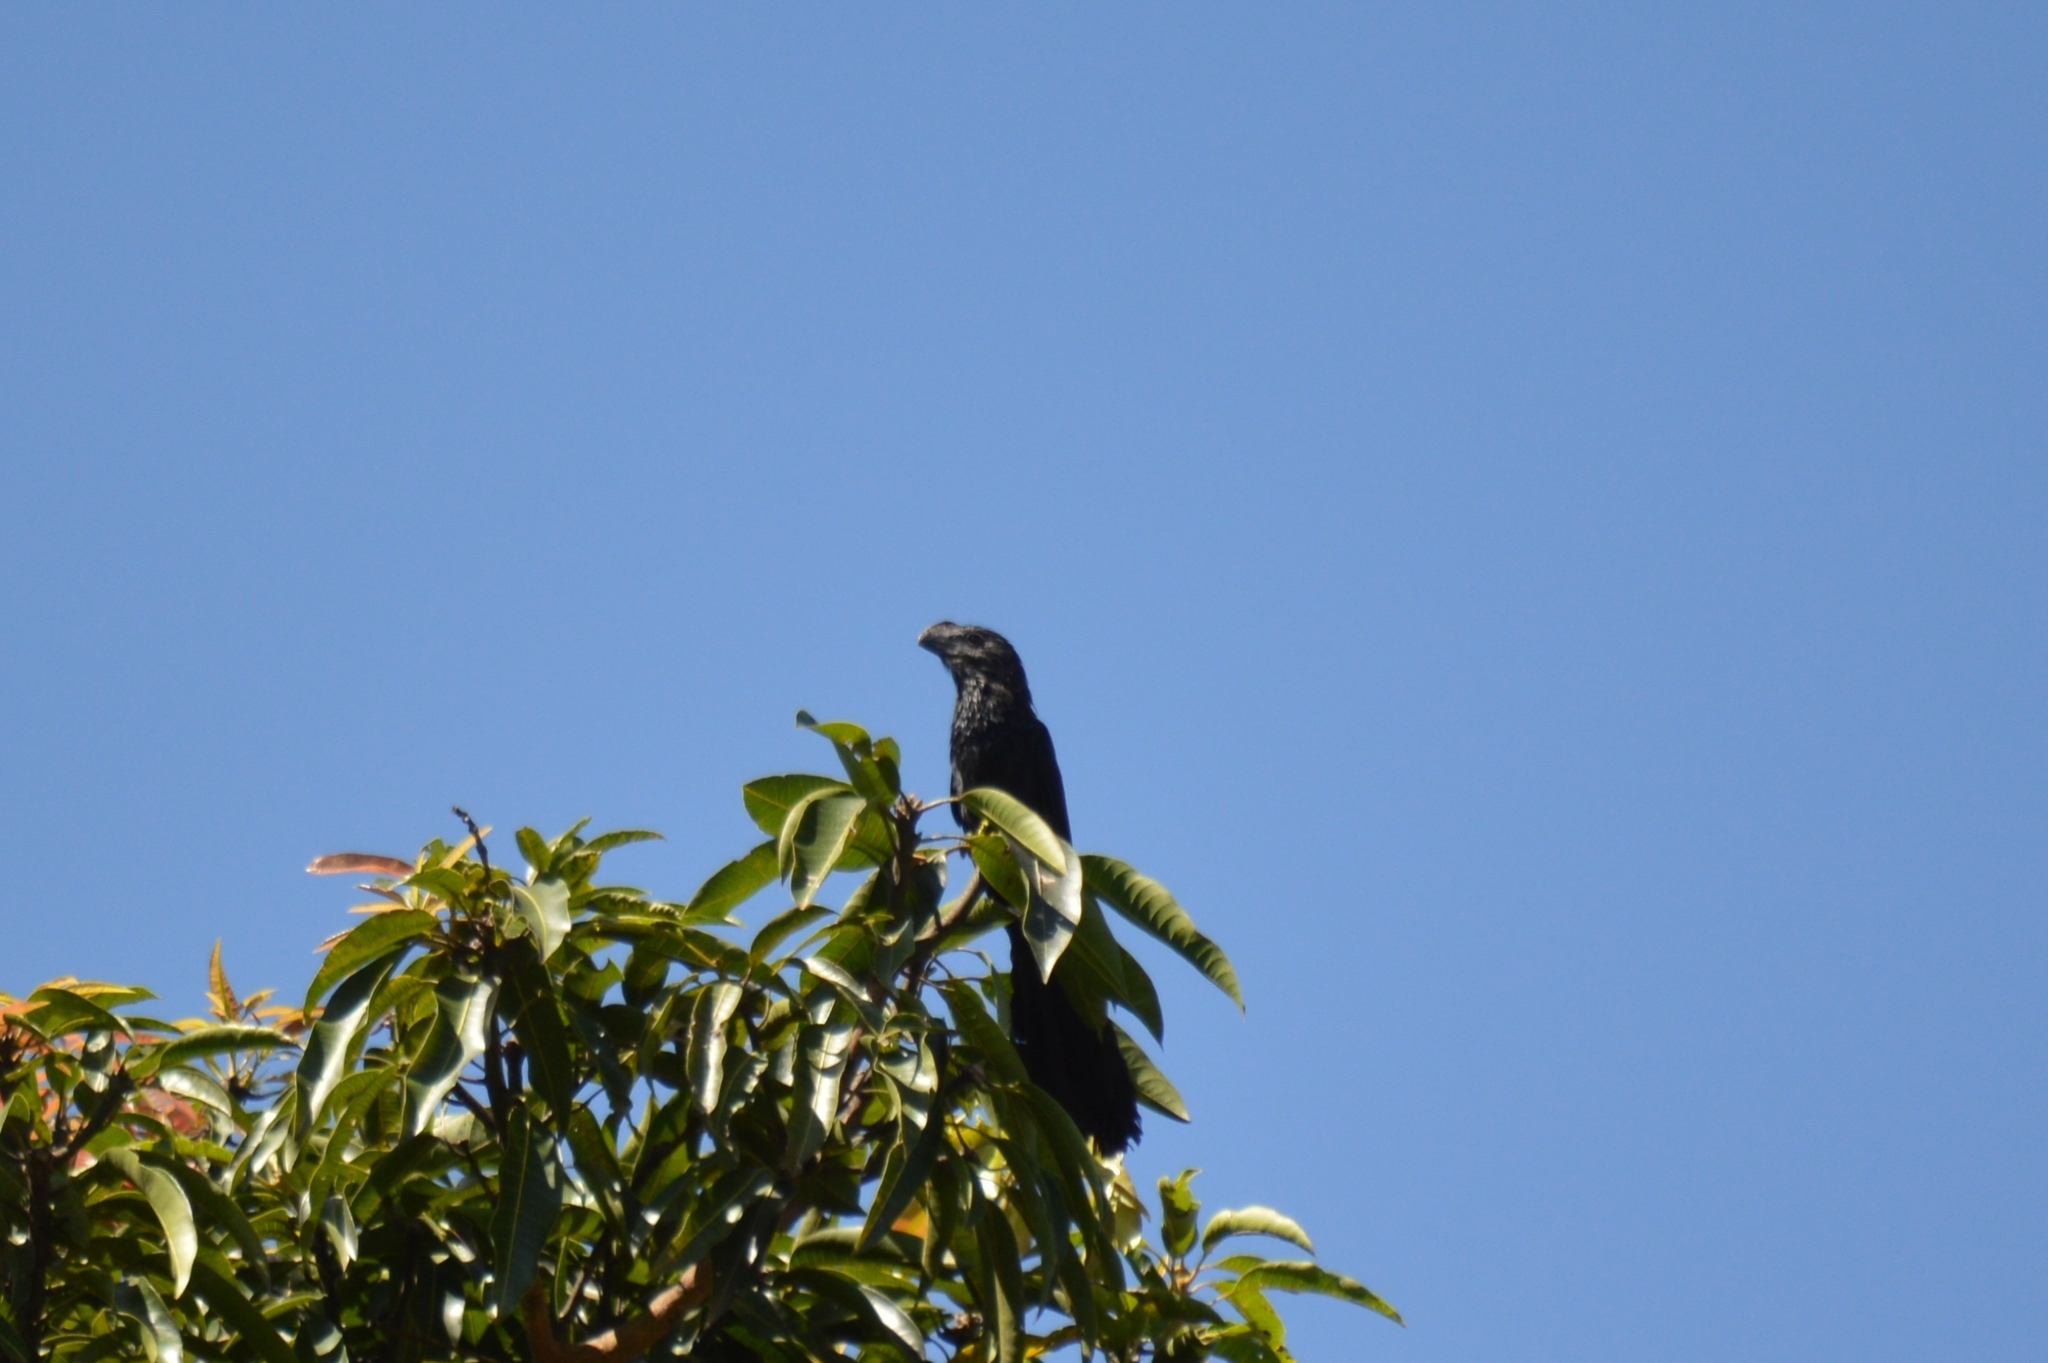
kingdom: Animalia
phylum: Chordata
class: Aves
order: Cuculiformes
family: Cuculidae
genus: Crotophaga
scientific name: Crotophaga ani
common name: Smooth-billed ani
